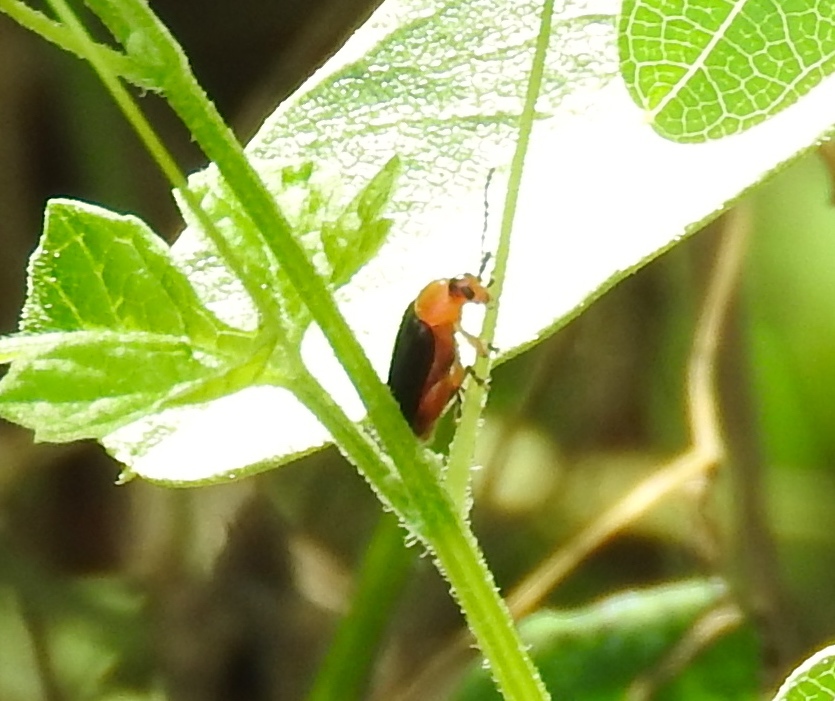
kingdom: Animalia
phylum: Arthropoda
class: Insecta
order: Coleoptera
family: Chrysomelidae
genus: Disonycha
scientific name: Disonycha
